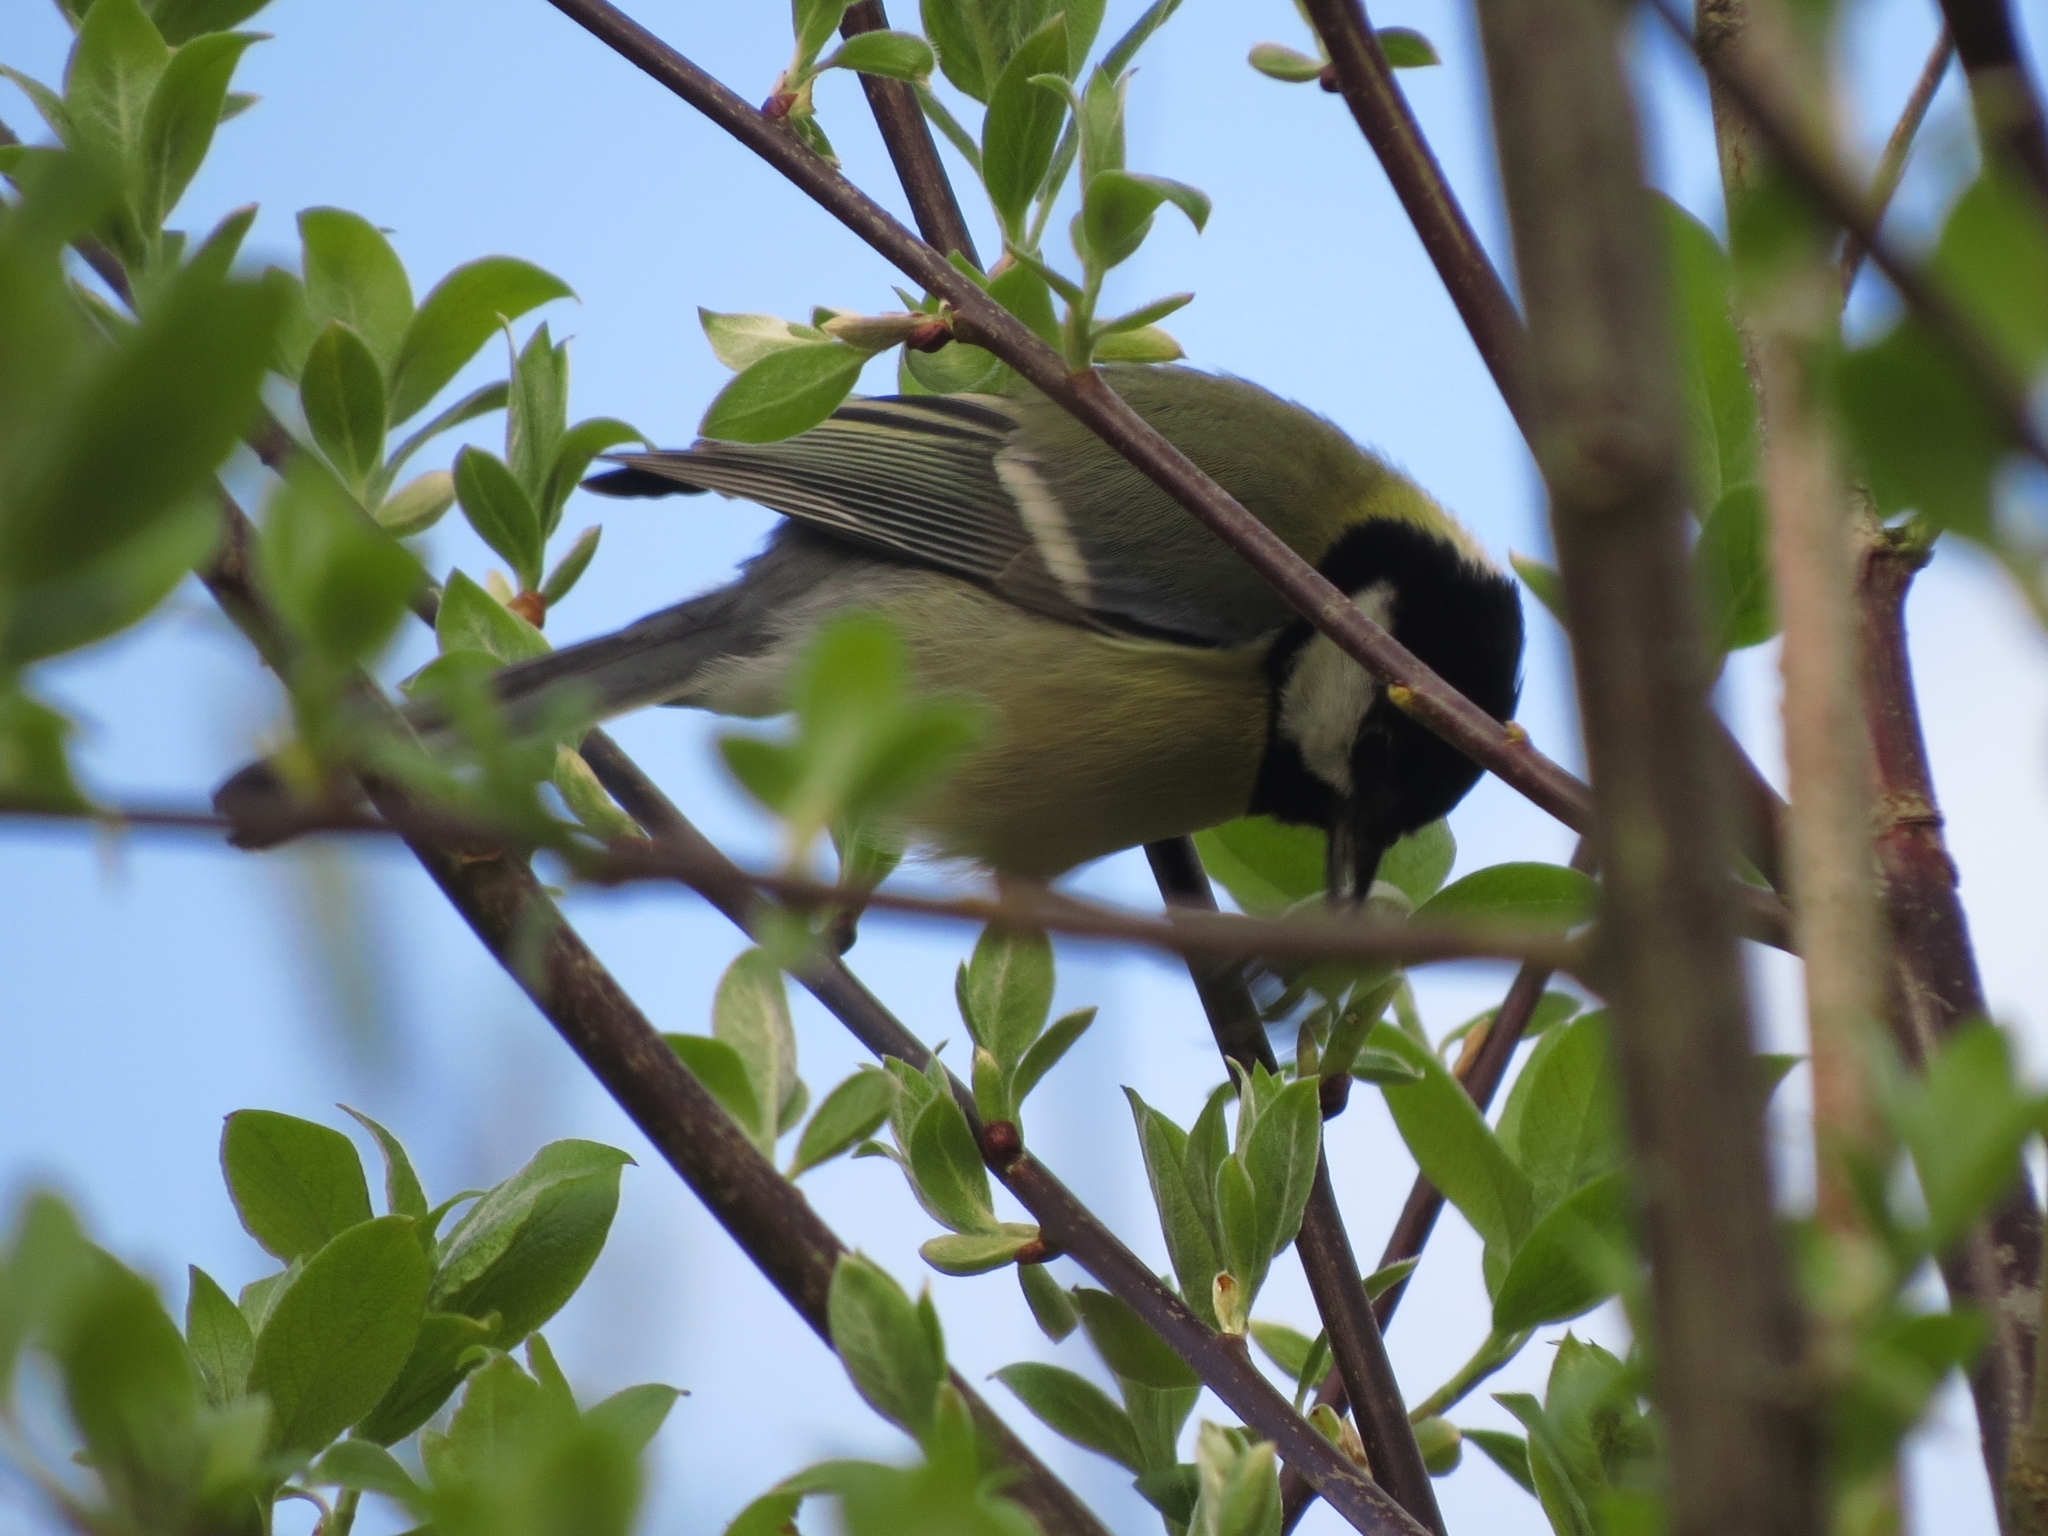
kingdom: Animalia
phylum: Chordata
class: Aves
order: Passeriformes
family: Paridae
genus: Parus
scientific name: Parus major
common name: Great tit
